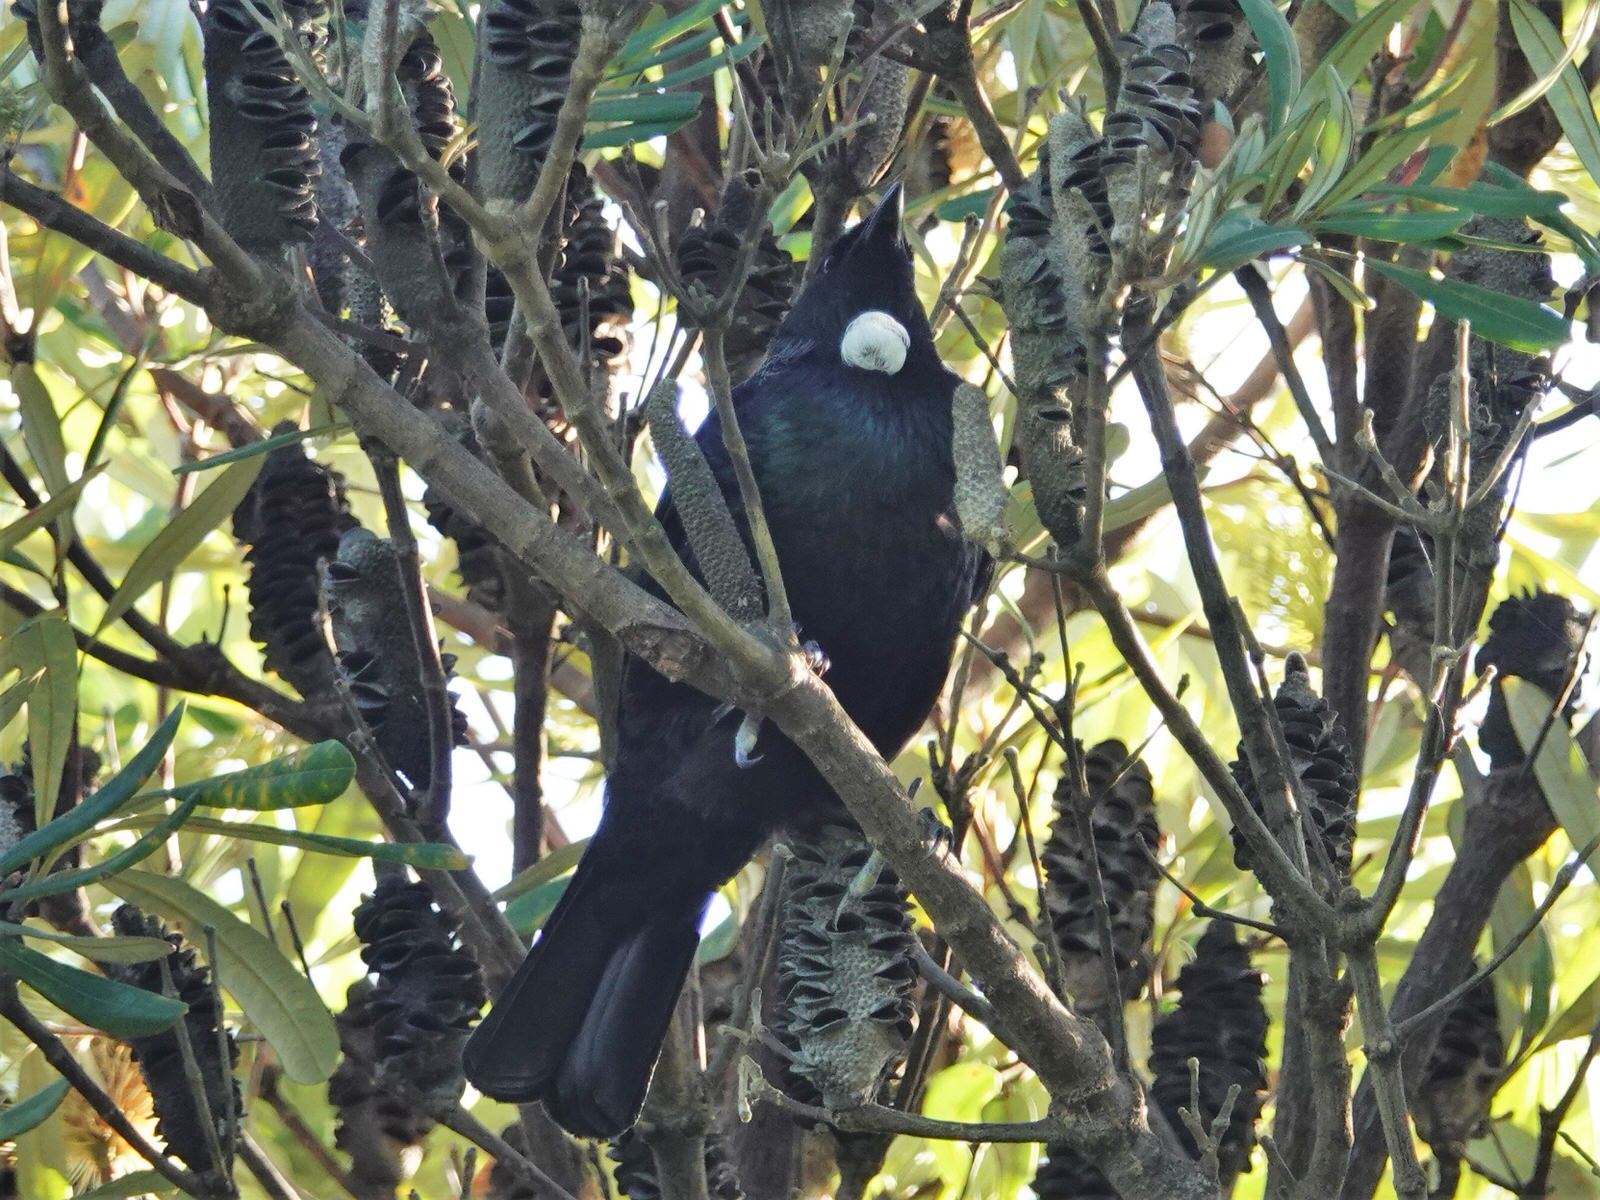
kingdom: Animalia
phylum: Chordata
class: Aves
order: Passeriformes
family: Meliphagidae
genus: Prosthemadera
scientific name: Prosthemadera novaeseelandiae
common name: Tui
